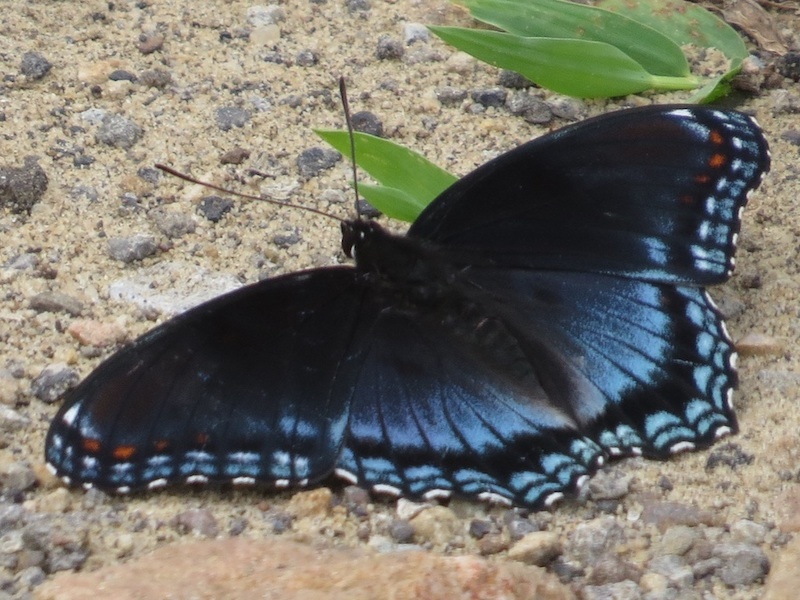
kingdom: Animalia
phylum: Arthropoda
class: Insecta
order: Lepidoptera
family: Nymphalidae
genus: Limenitis
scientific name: Limenitis astyanax
